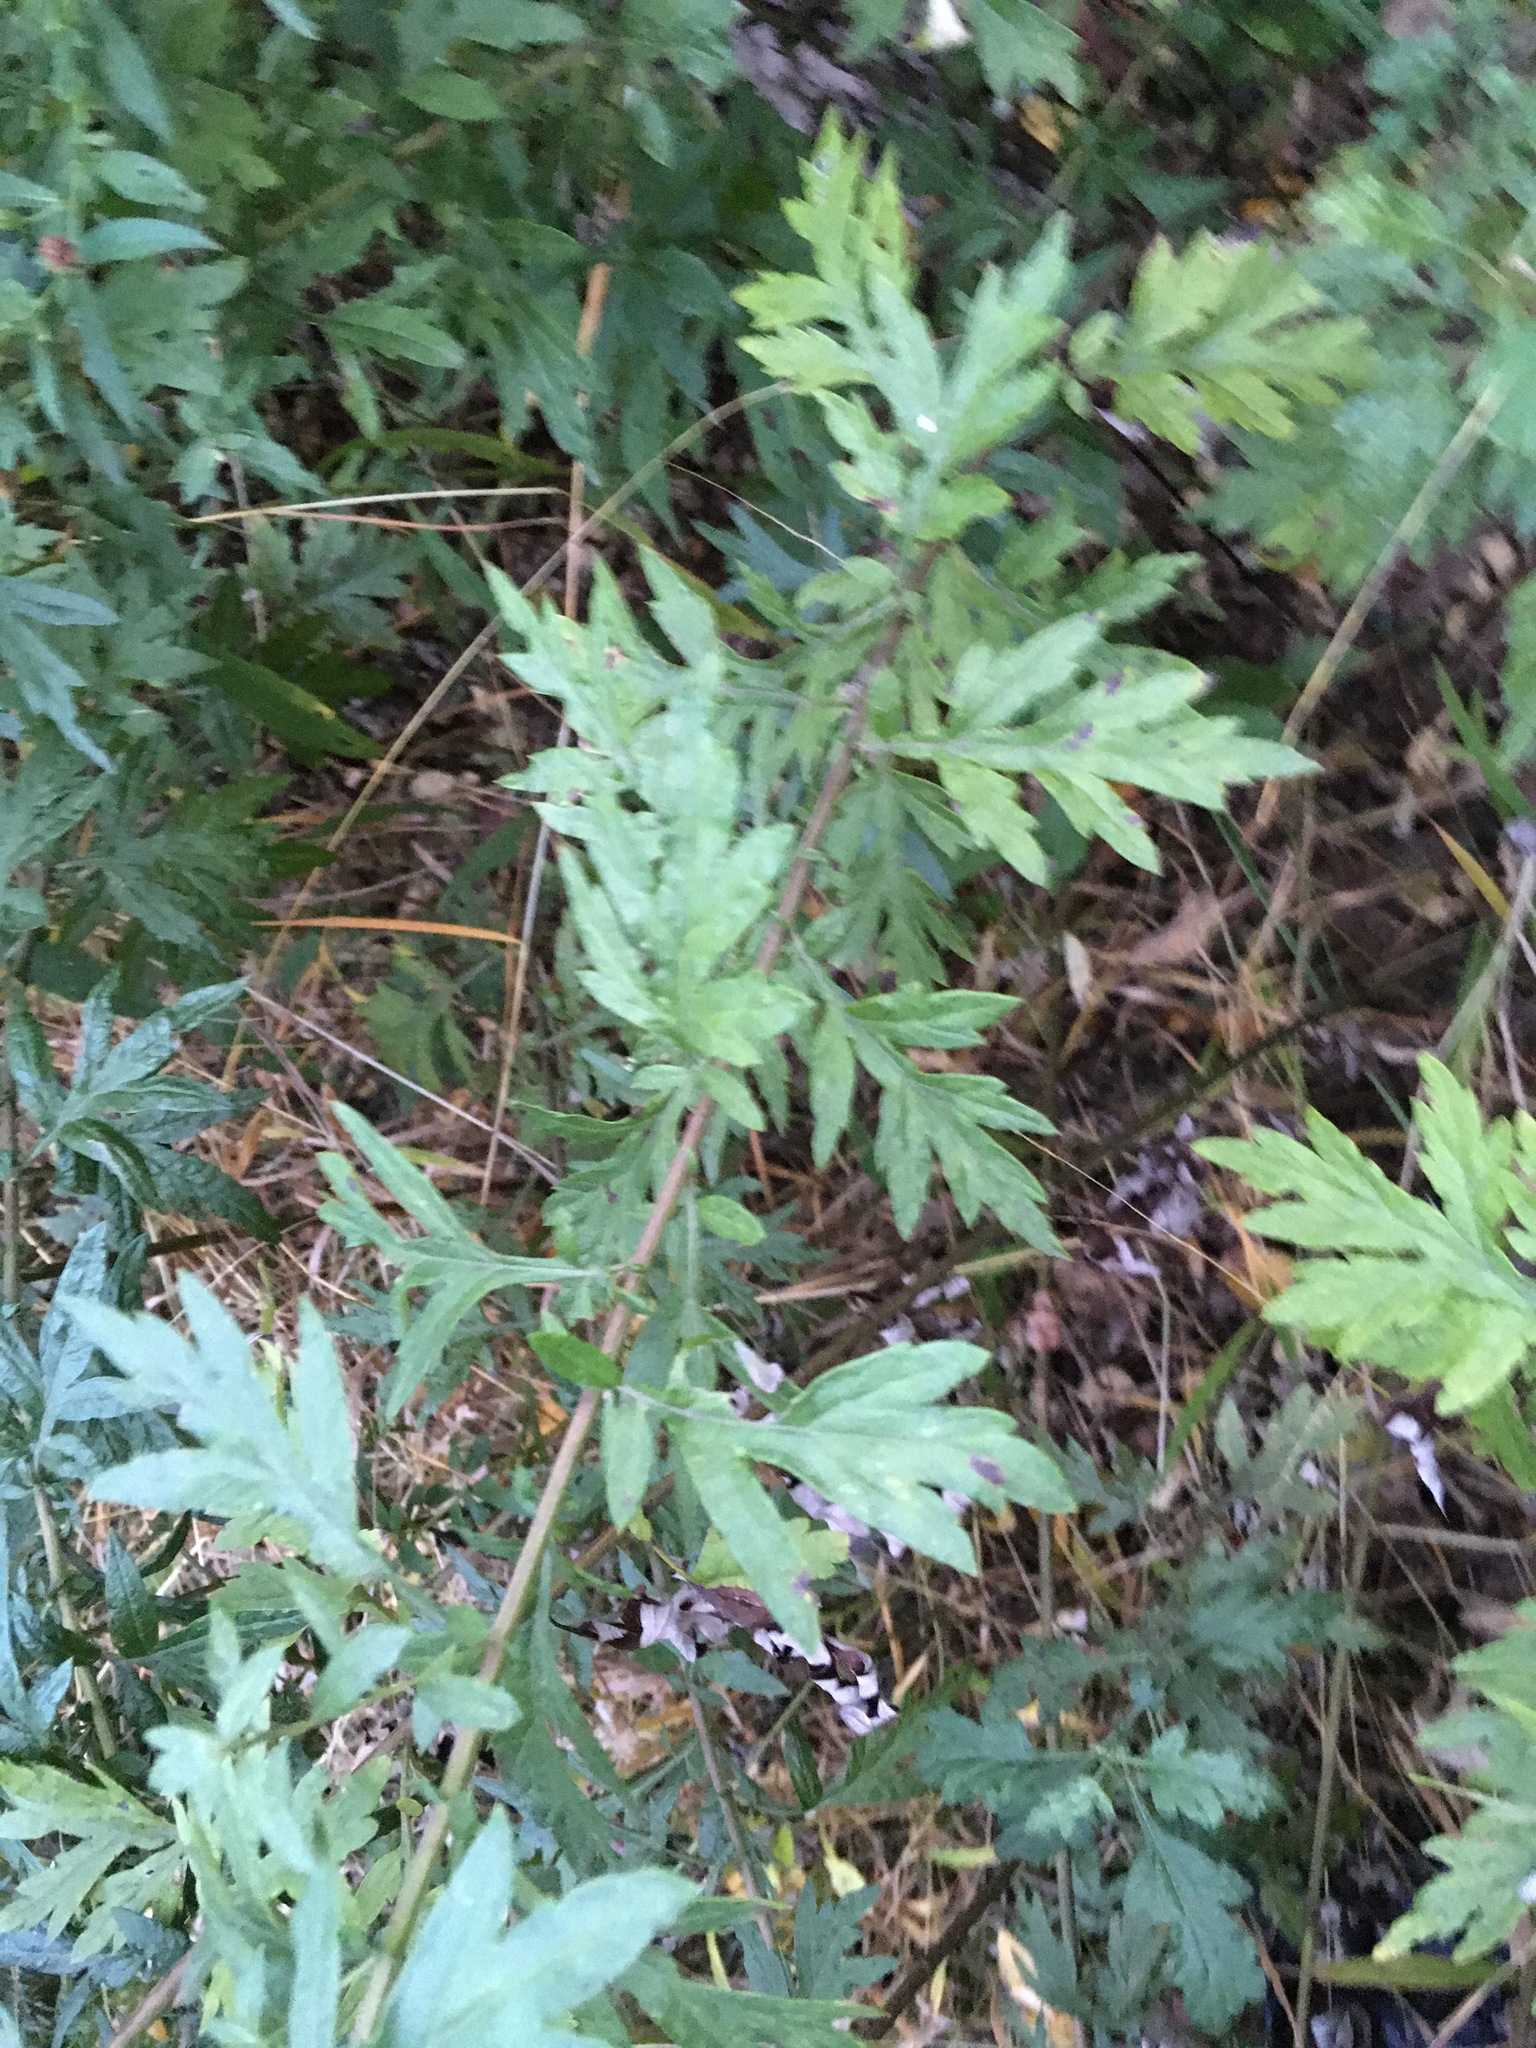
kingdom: Plantae
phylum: Tracheophyta
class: Magnoliopsida
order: Asterales
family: Asteraceae
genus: Artemisia
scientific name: Artemisia vulgaris
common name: Mugwort
